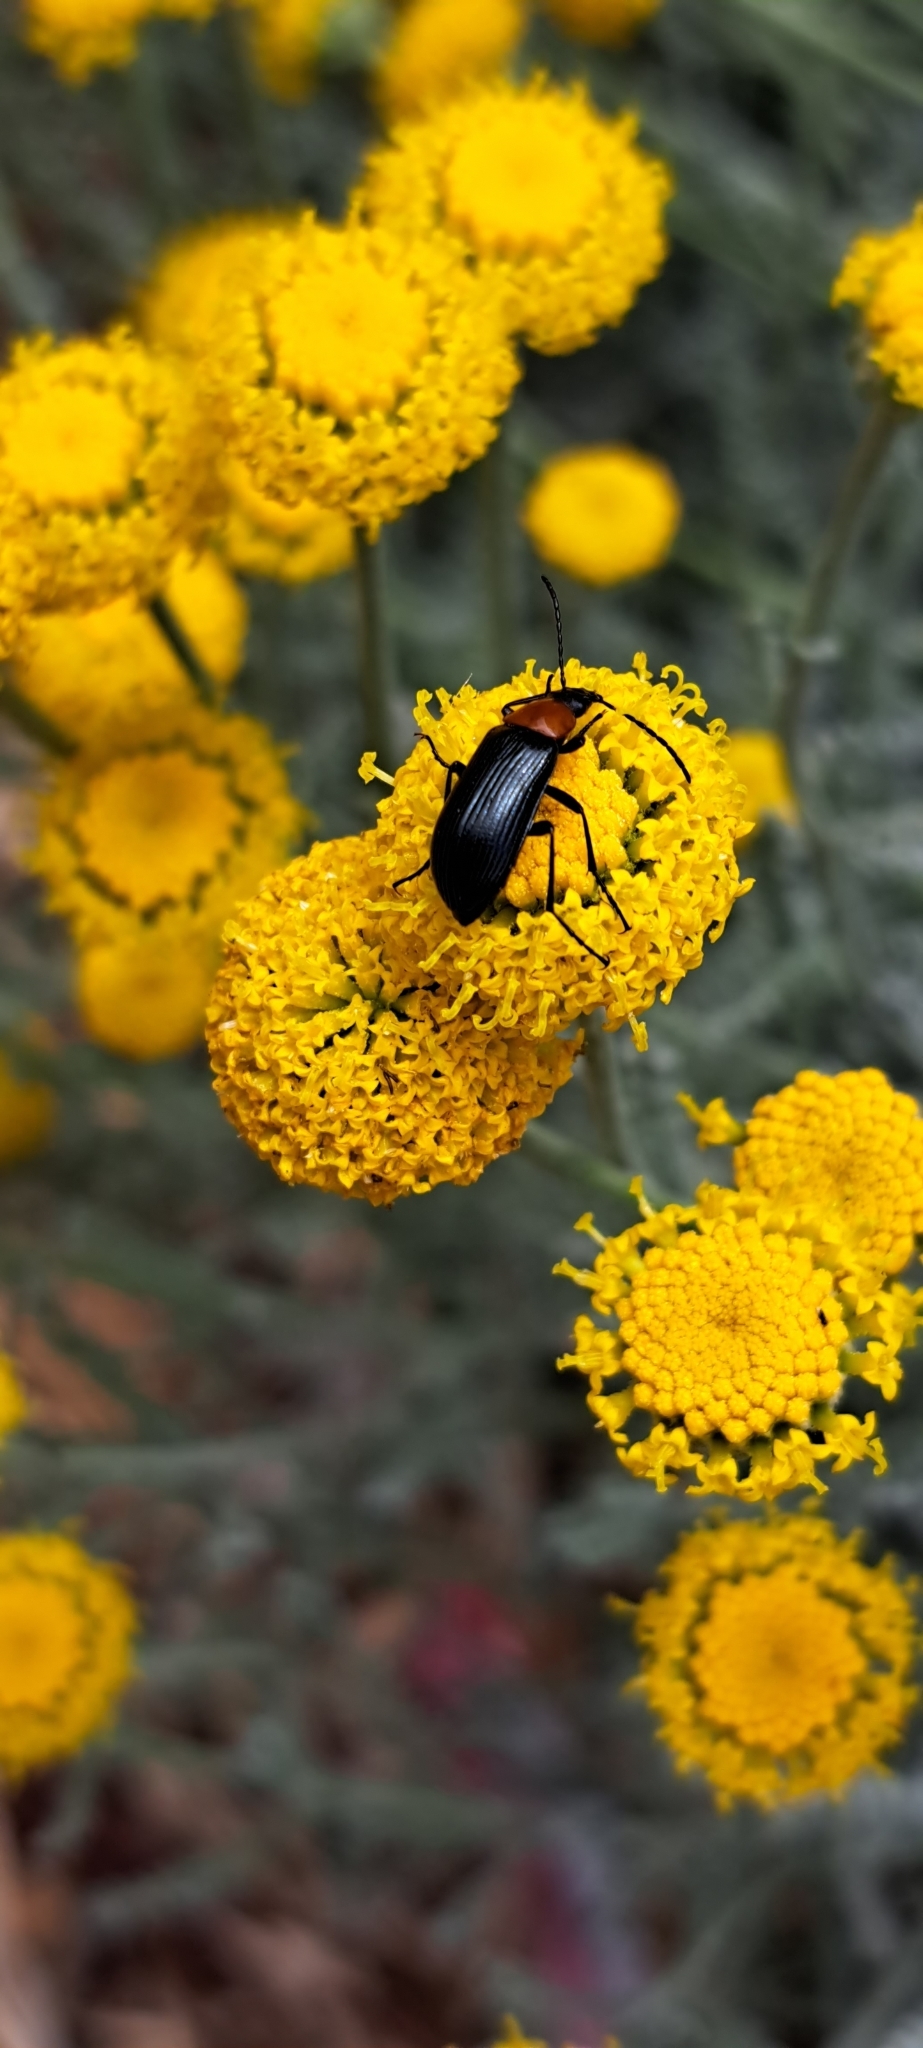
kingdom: Animalia
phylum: Arthropoda
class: Insecta
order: Coleoptera
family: Tenebrionidae
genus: Heliotaurus
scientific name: Heliotaurus ruficollis
